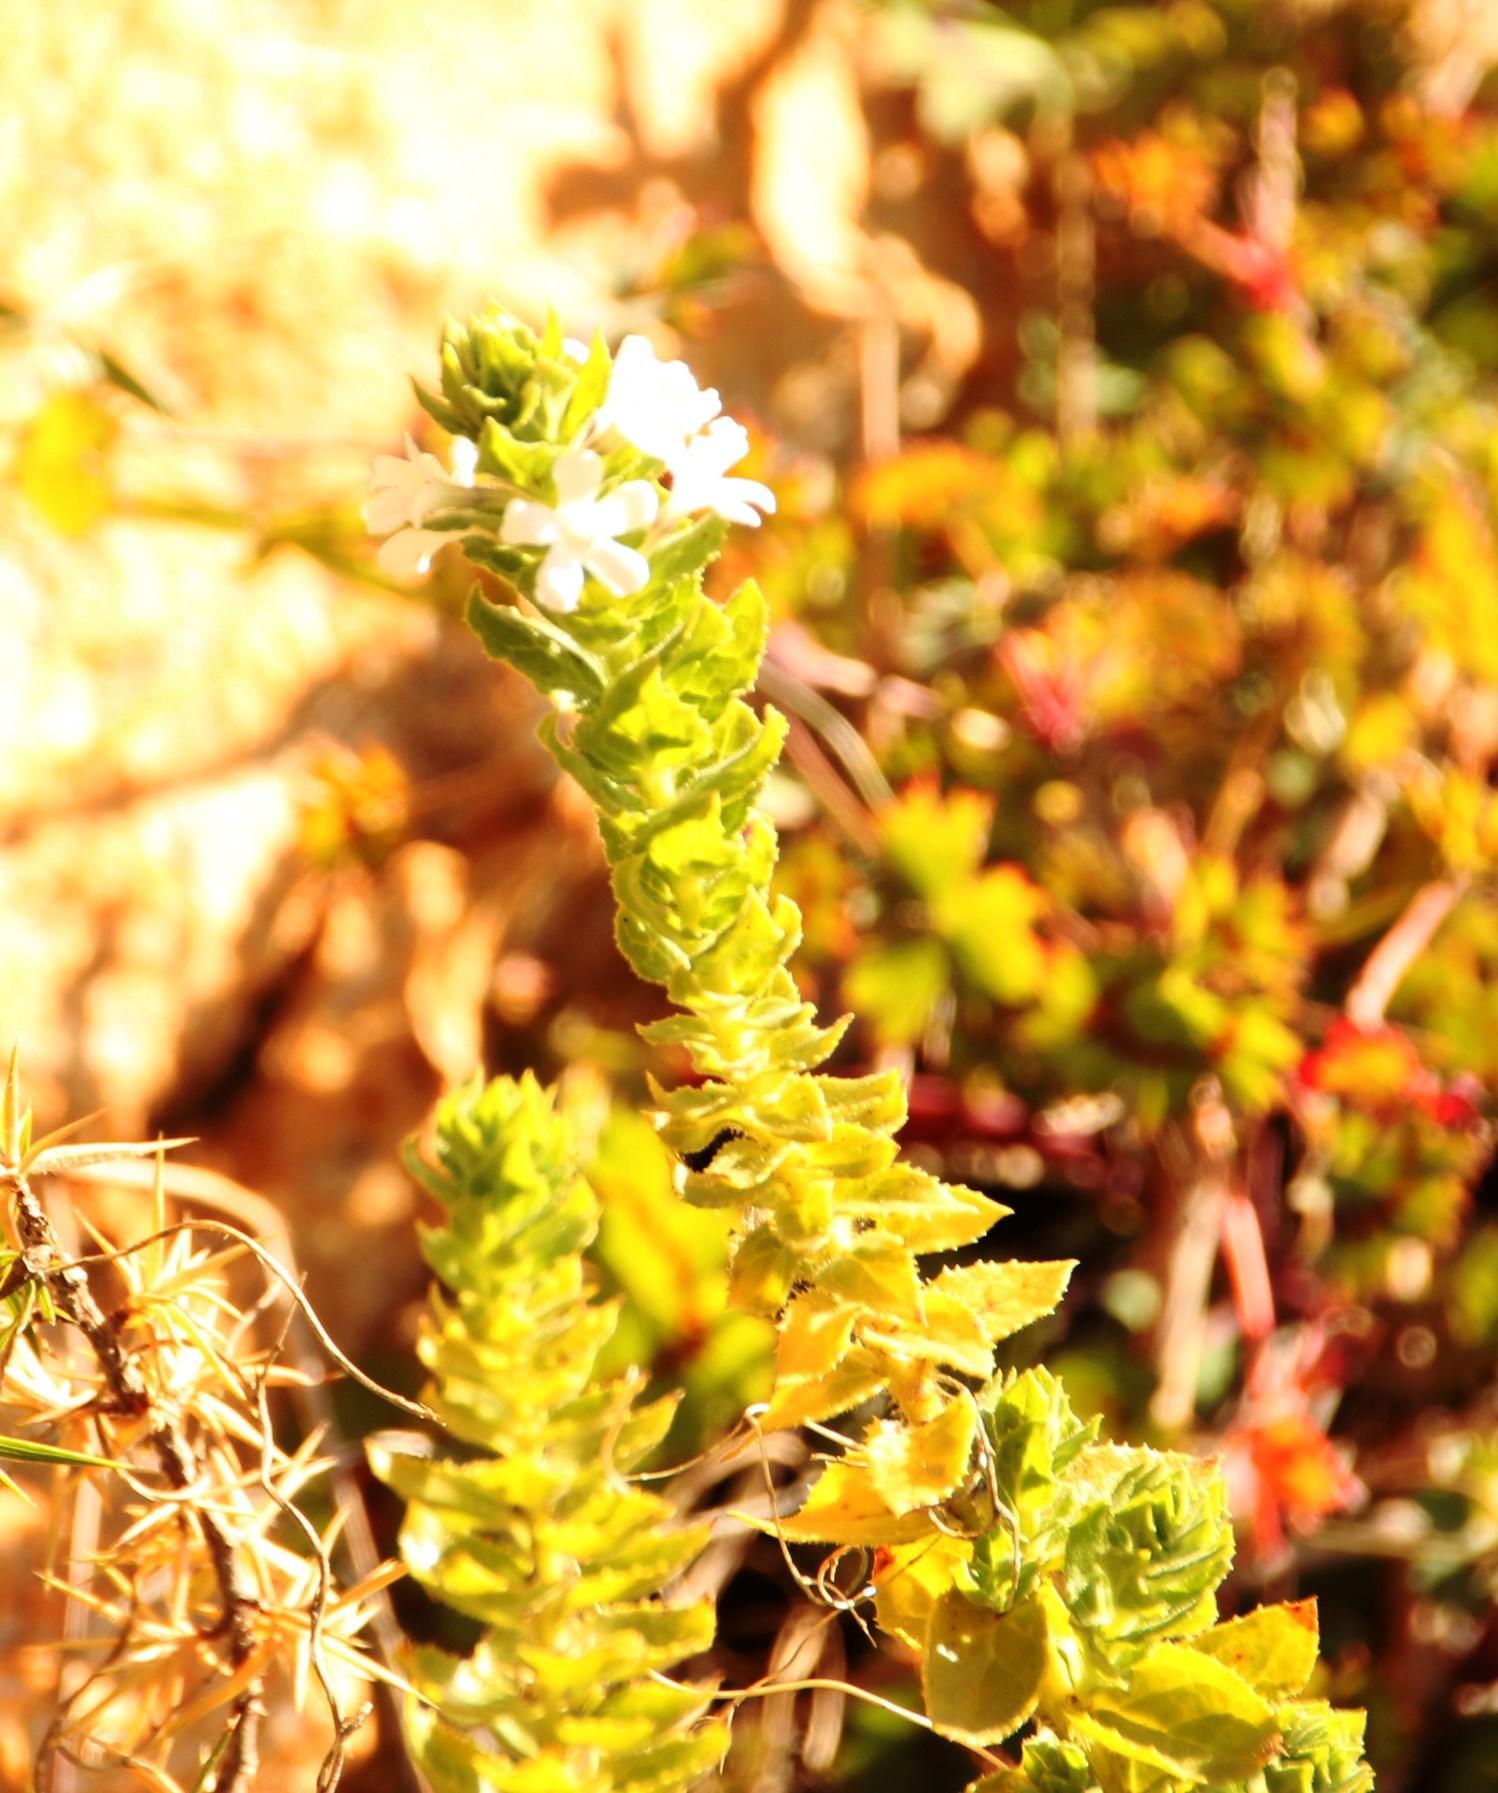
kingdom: Plantae
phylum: Tracheophyta
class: Magnoliopsida
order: Lamiales
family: Scrophulariaceae
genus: Oftia
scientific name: Oftia africana
